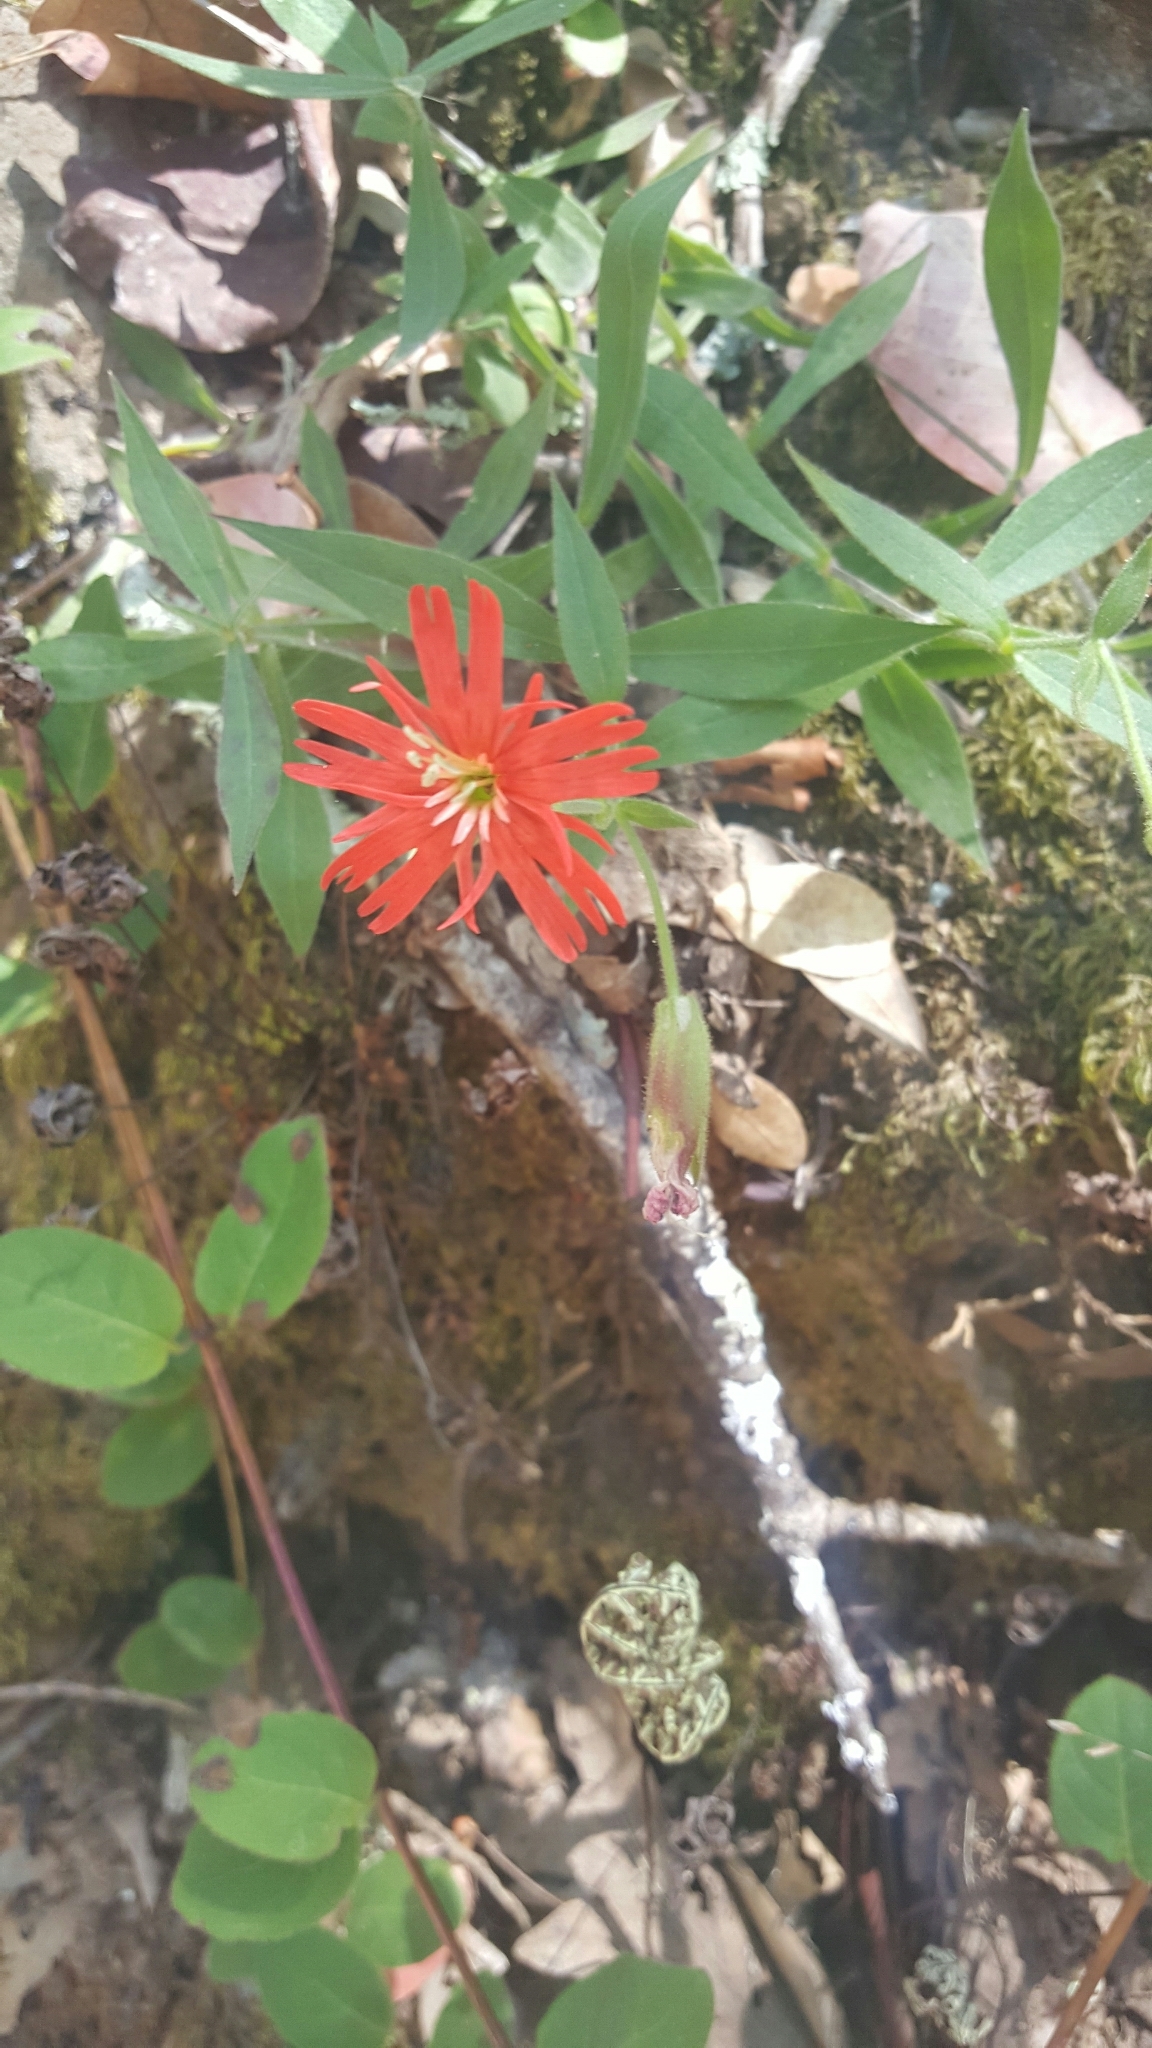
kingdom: Plantae
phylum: Tracheophyta
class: Magnoliopsida
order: Caryophyllales
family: Caryophyllaceae
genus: Silene
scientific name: Silene laciniata
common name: Indian-pink
